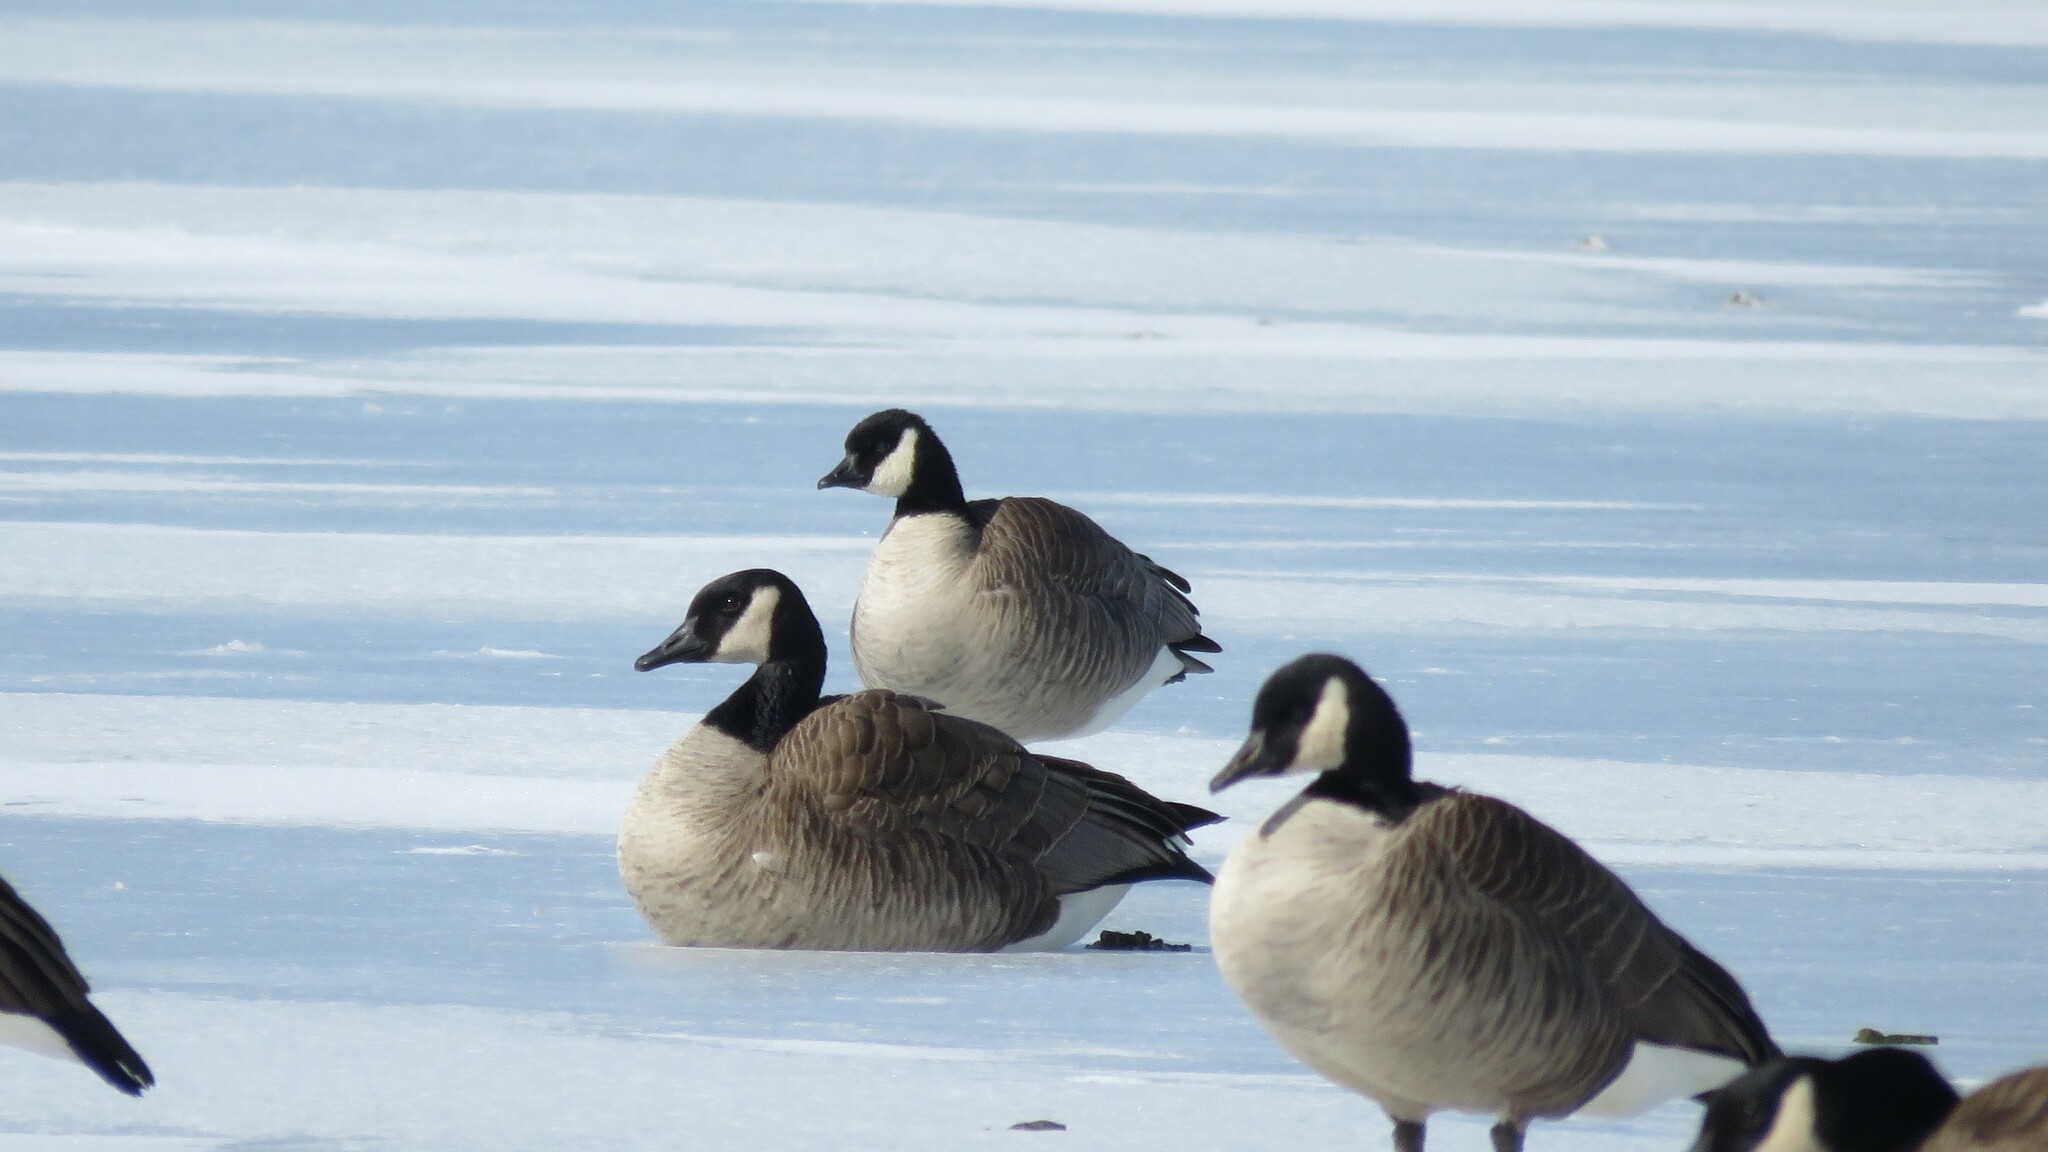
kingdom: Animalia
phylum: Chordata
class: Aves
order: Anseriformes
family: Anatidae
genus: Branta
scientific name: Branta hutchinsii
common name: Cackling goose
